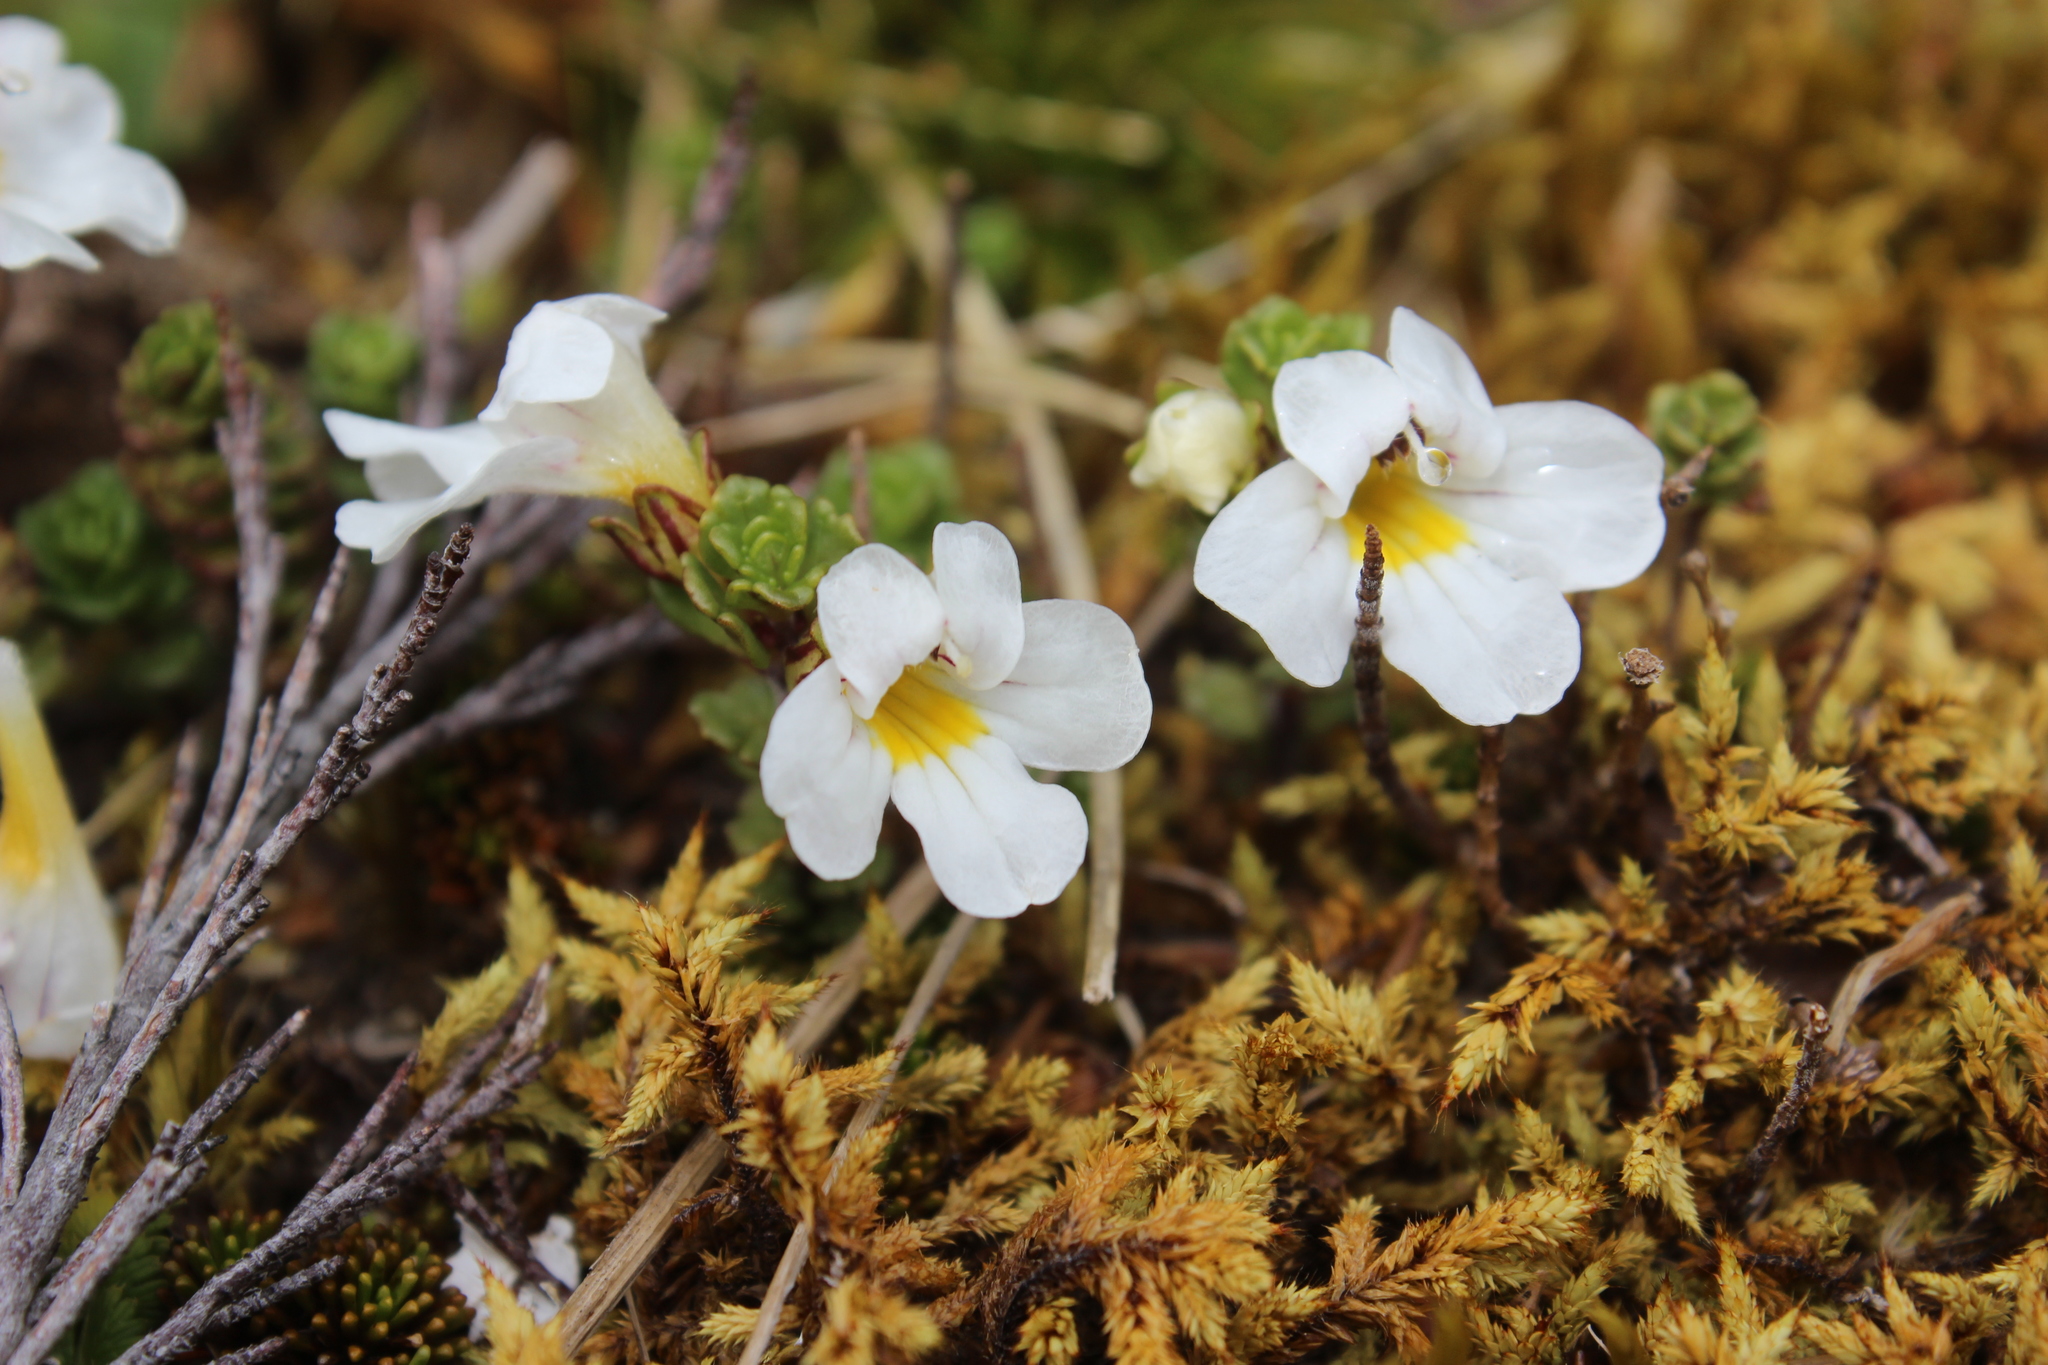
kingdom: Plantae
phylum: Tracheophyta
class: Magnoliopsida
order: Lamiales
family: Orobanchaceae
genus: Euphrasia
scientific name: Euphrasia drucei
